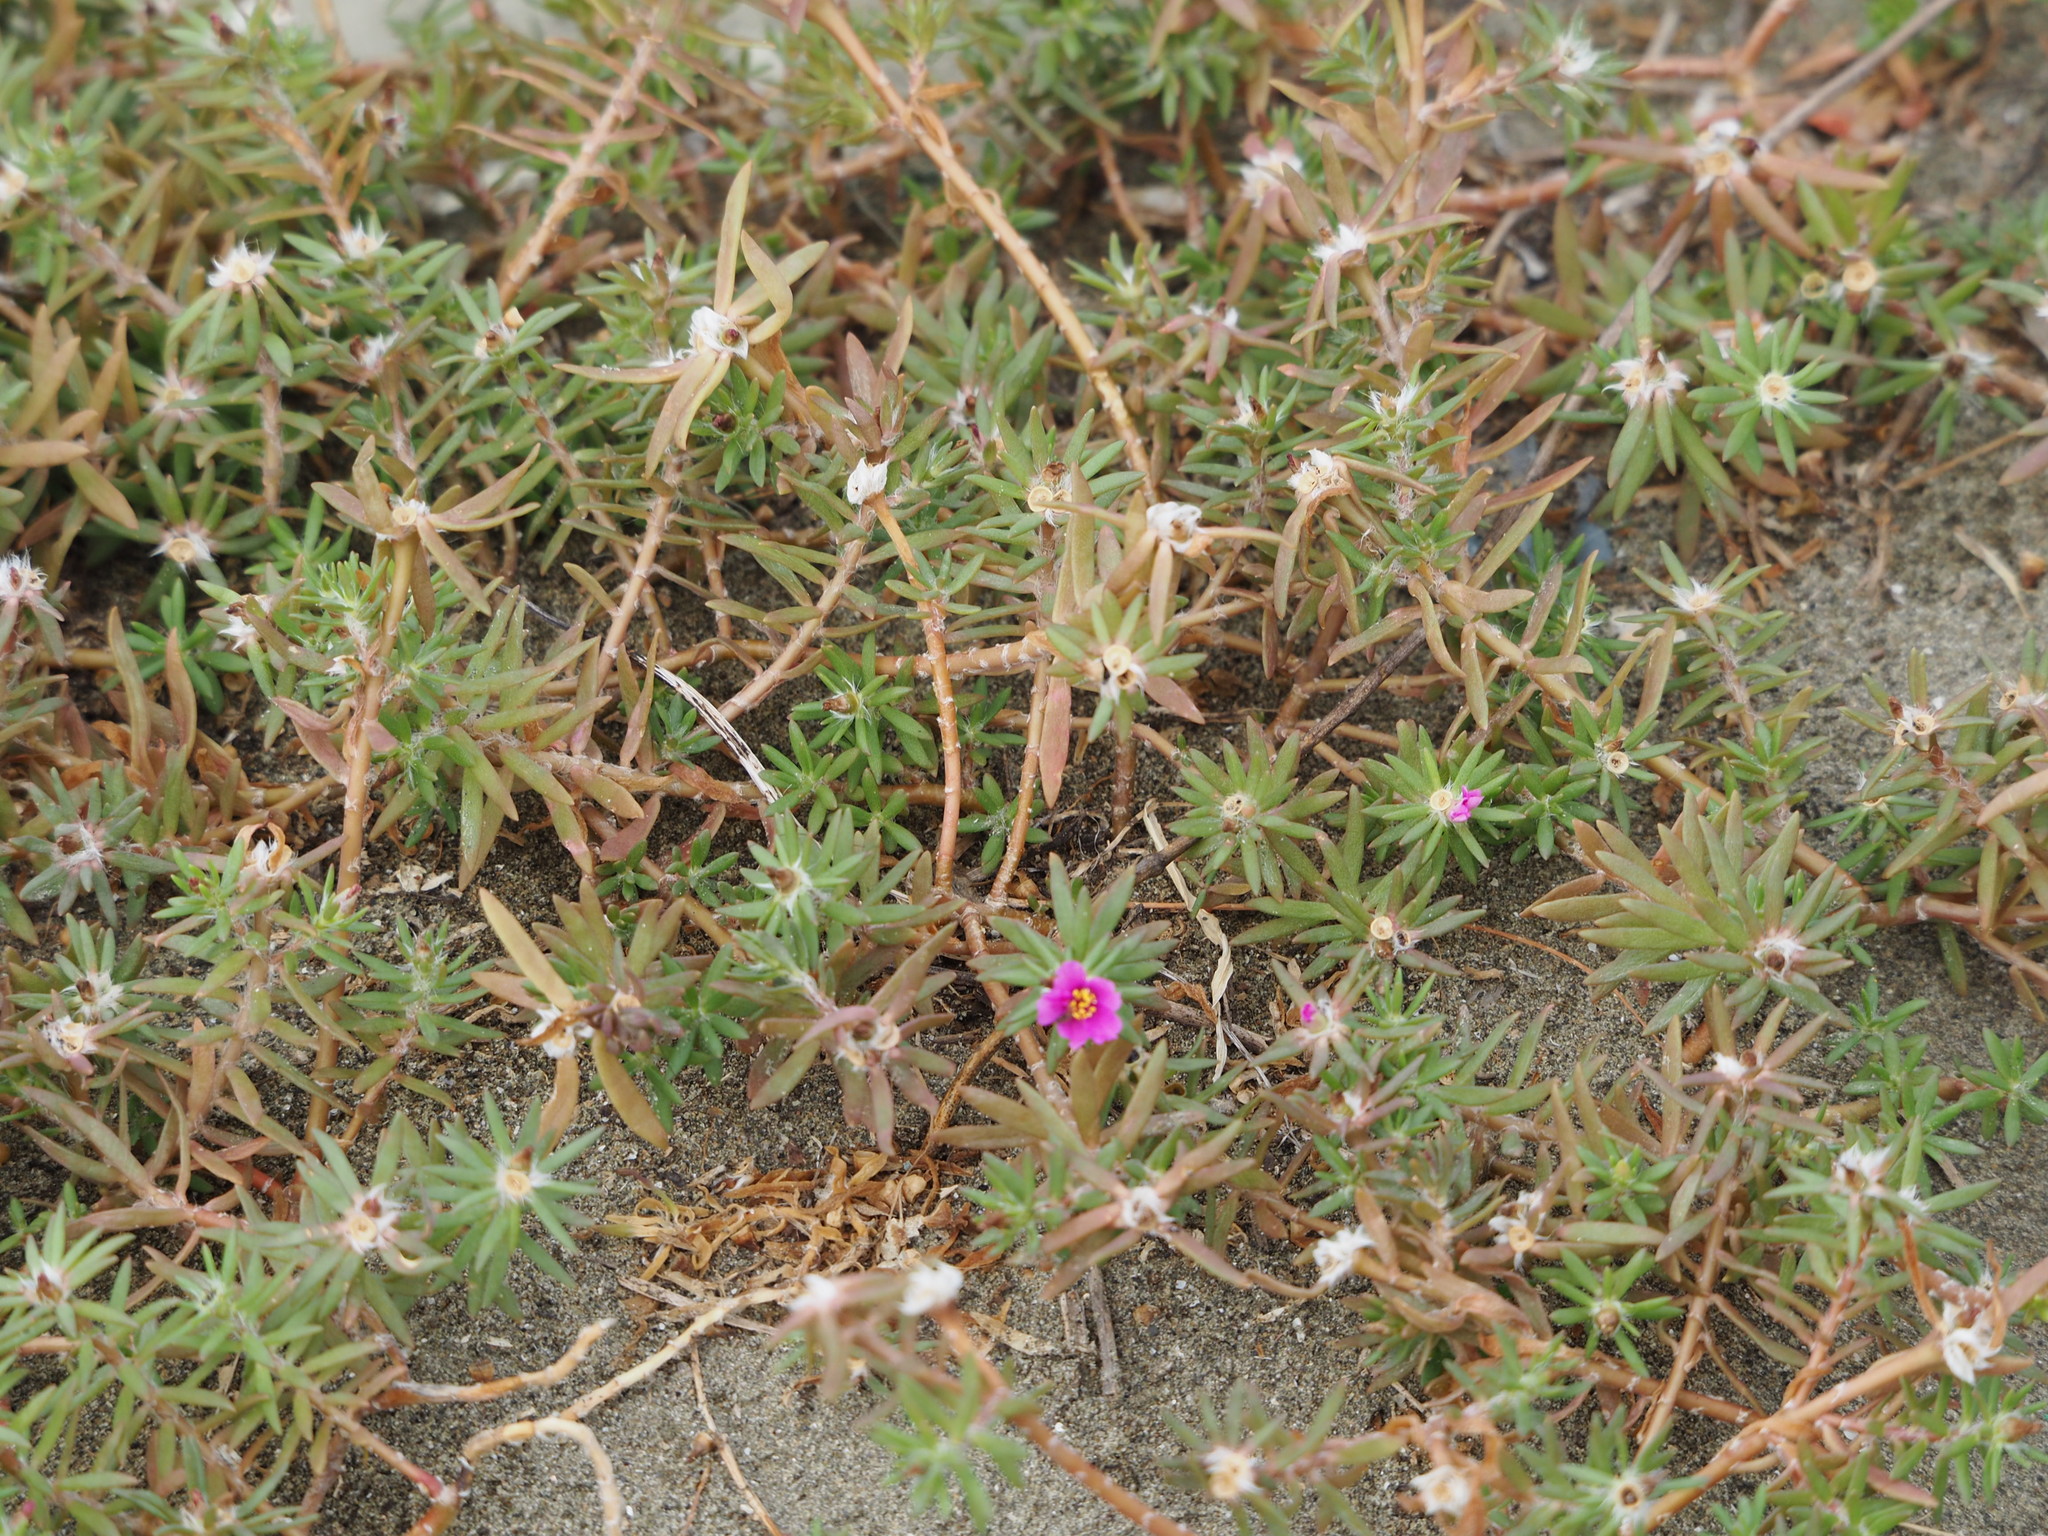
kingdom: Plantae
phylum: Tracheophyta
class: Magnoliopsida
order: Caryophyllales
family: Portulacaceae
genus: Portulaca
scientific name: Portulaca pilosa
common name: Kiss me quick
